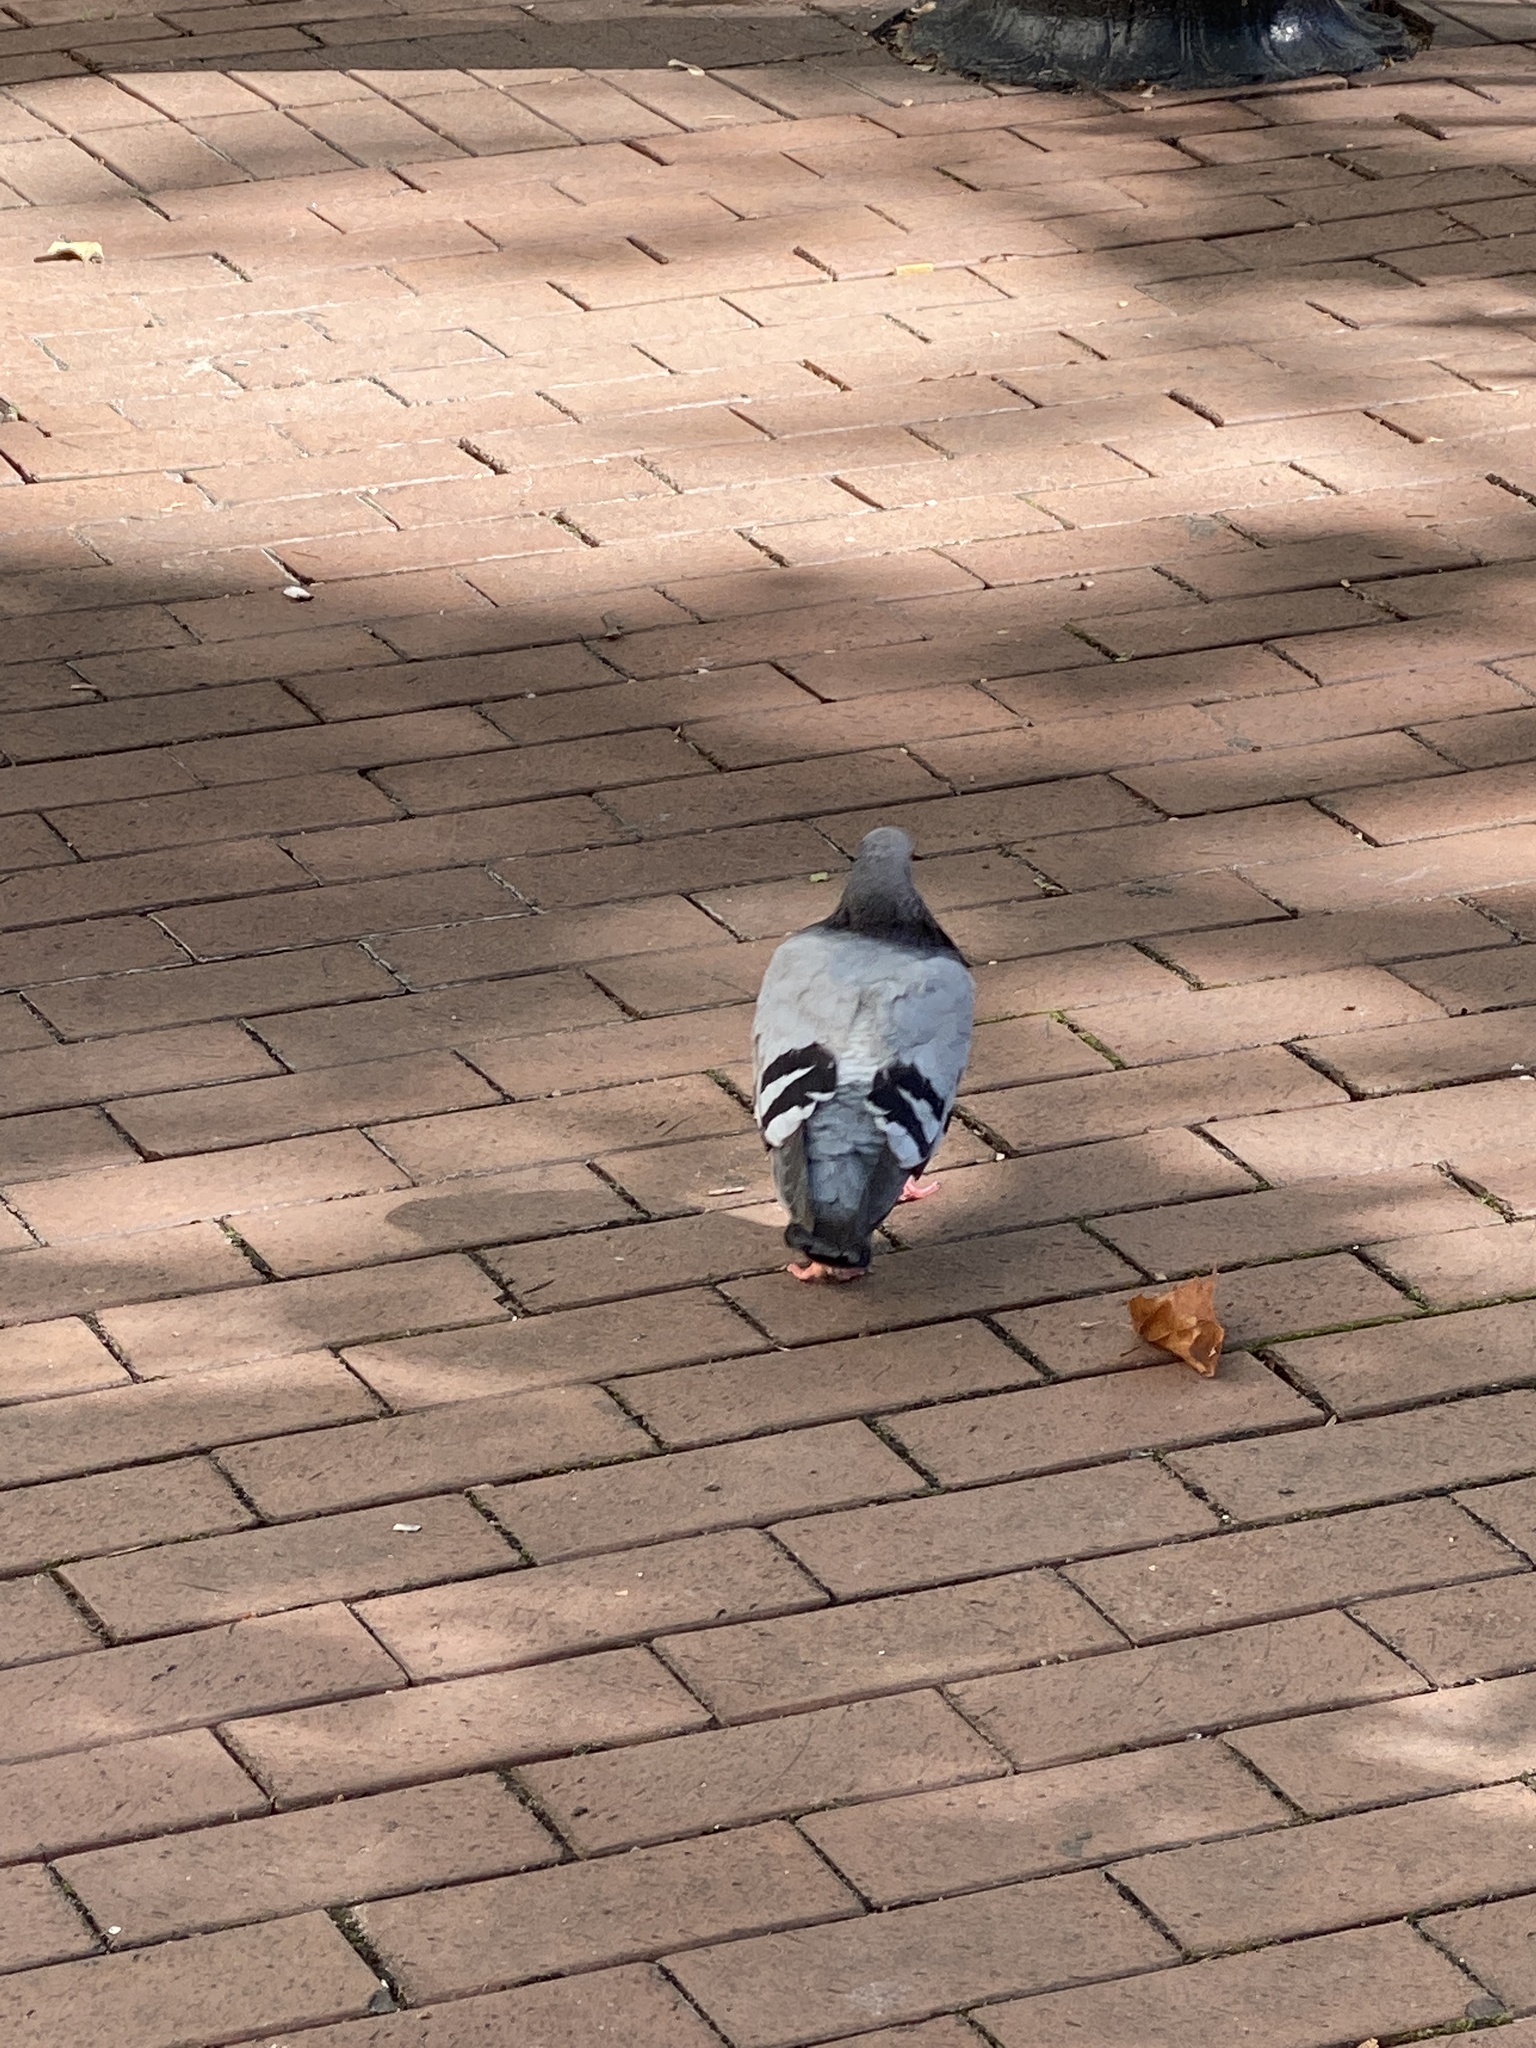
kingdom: Animalia
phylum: Chordata
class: Aves
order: Columbiformes
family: Columbidae
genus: Columba
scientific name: Columba livia
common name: Rock pigeon
